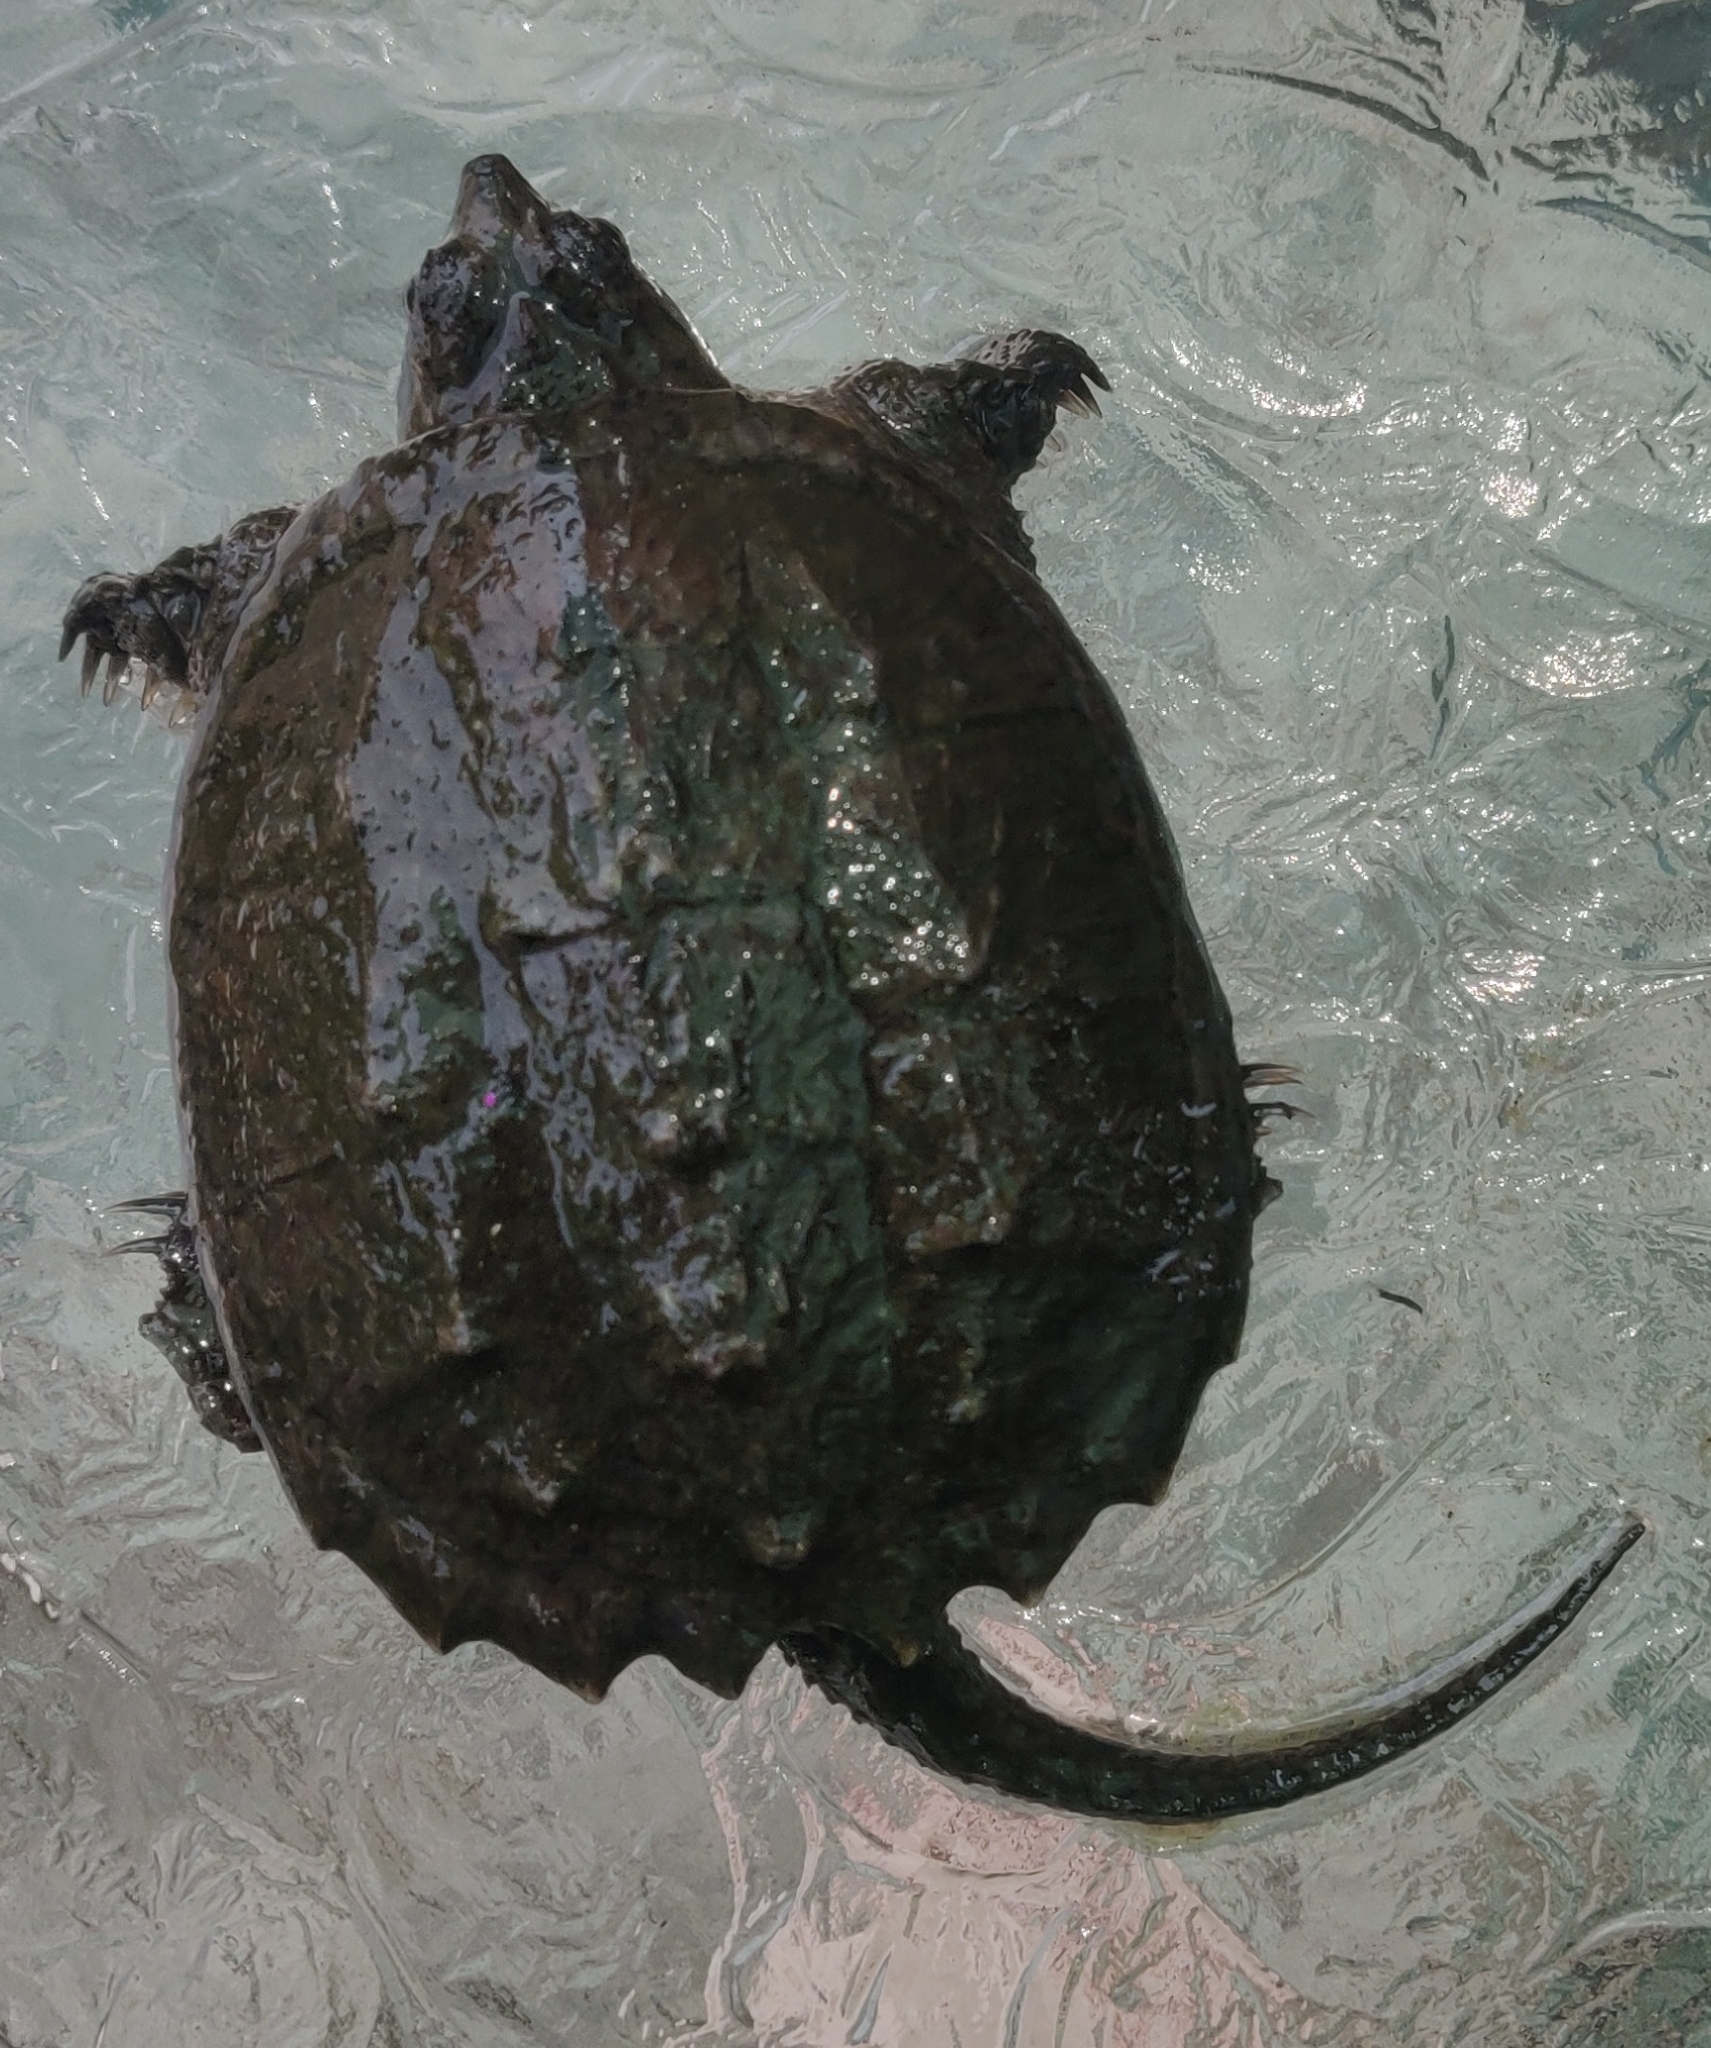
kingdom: Animalia
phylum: Chordata
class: Testudines
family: Chelydridae
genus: Chelydra
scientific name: Chelydra serpentina
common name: Common snapping turtle
